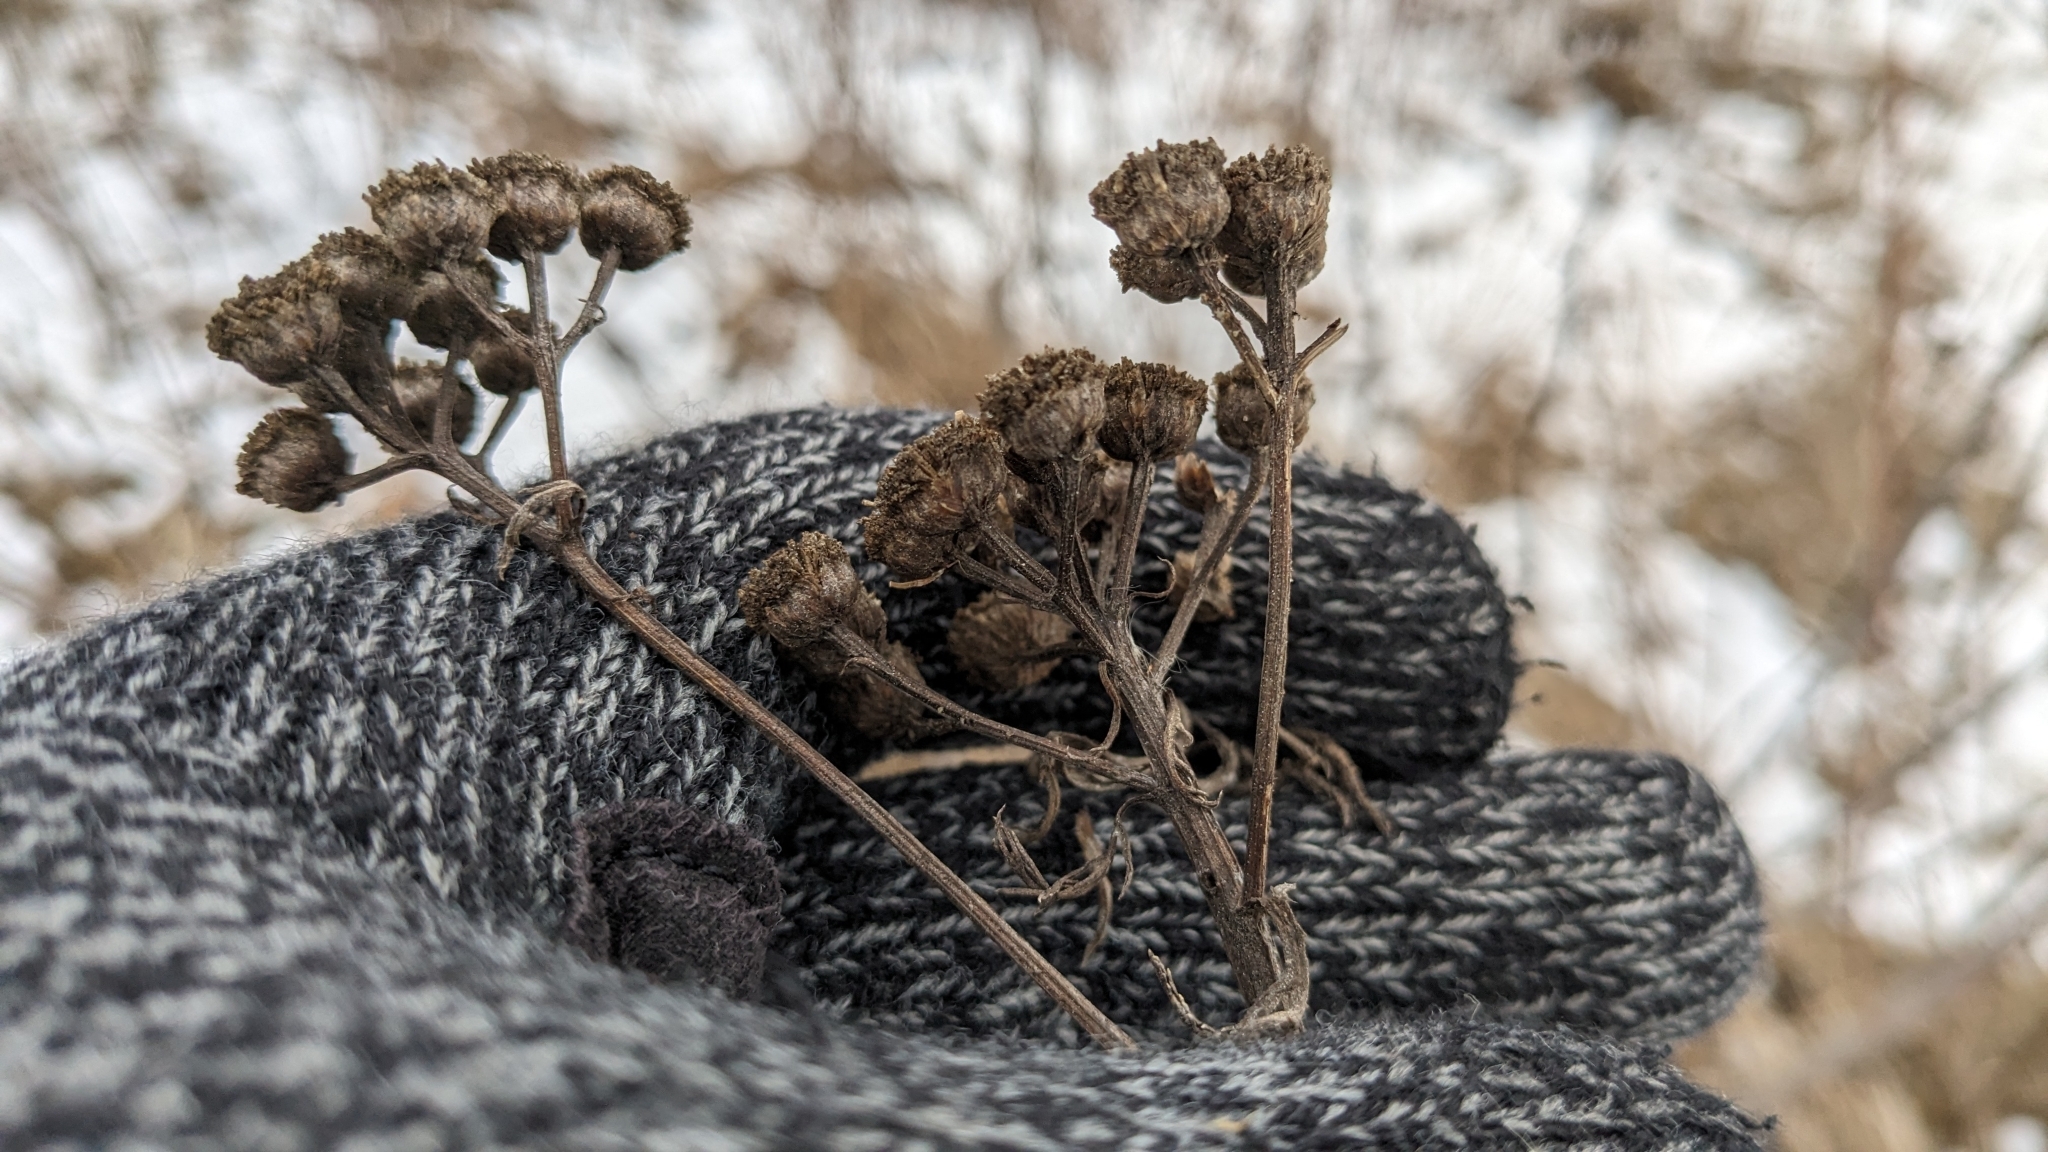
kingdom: Plantae
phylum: Tracheophyta
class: Magnoliopsida
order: Asterales
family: Asteraceae
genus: Tanacetum
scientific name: Tanacetum vulgare
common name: Common tansy
